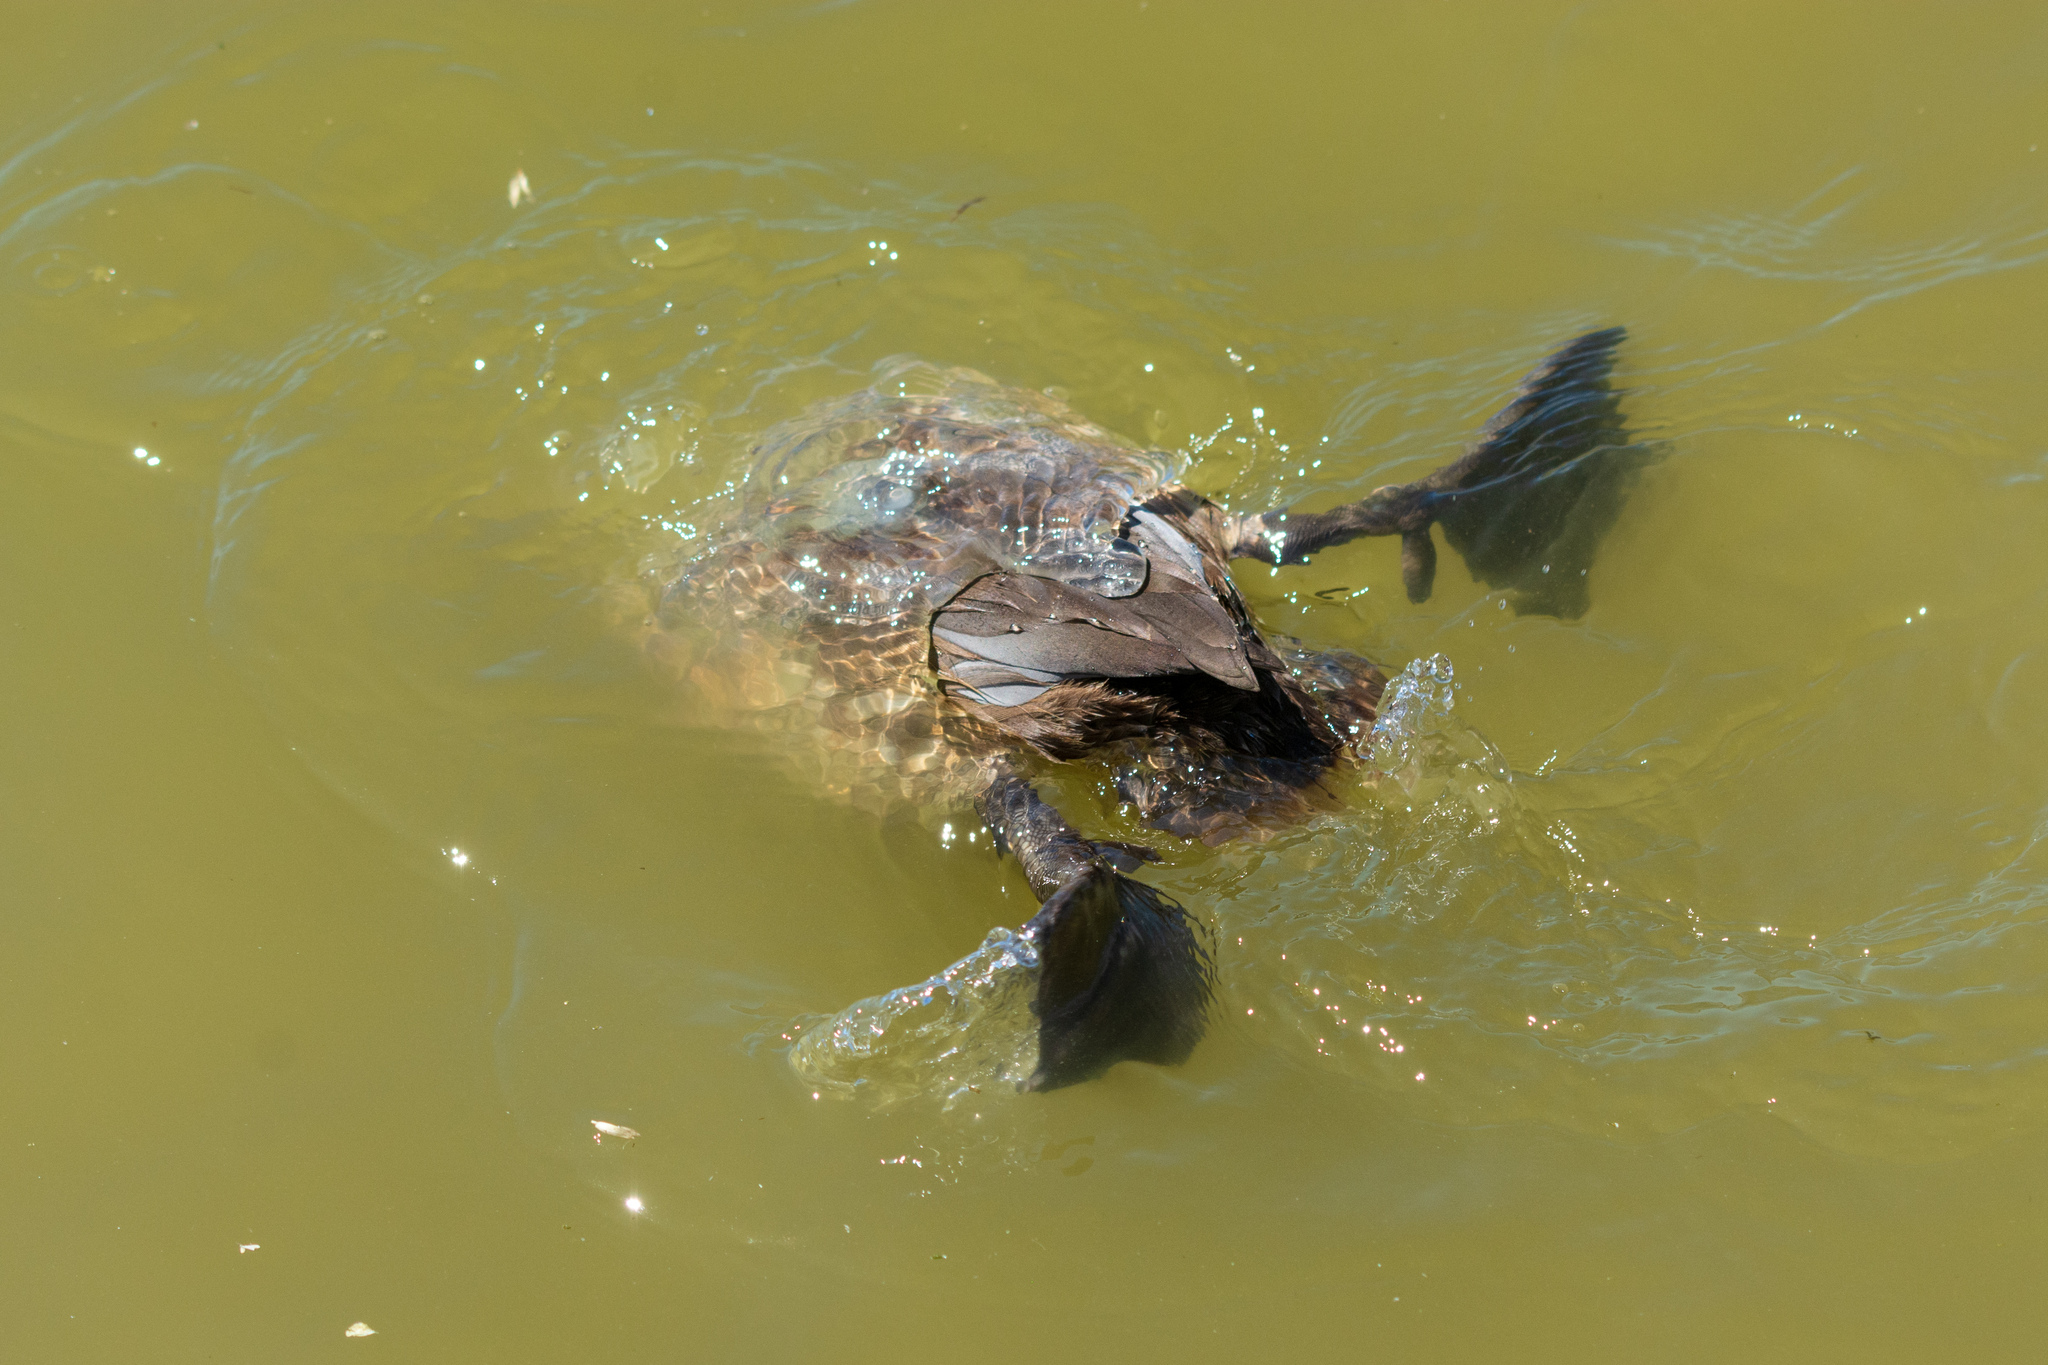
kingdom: Animalia
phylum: Chordata
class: Aves
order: Anseriformes
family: Anatidae
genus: Aythya
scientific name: Aythya ferina
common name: Common pochard
